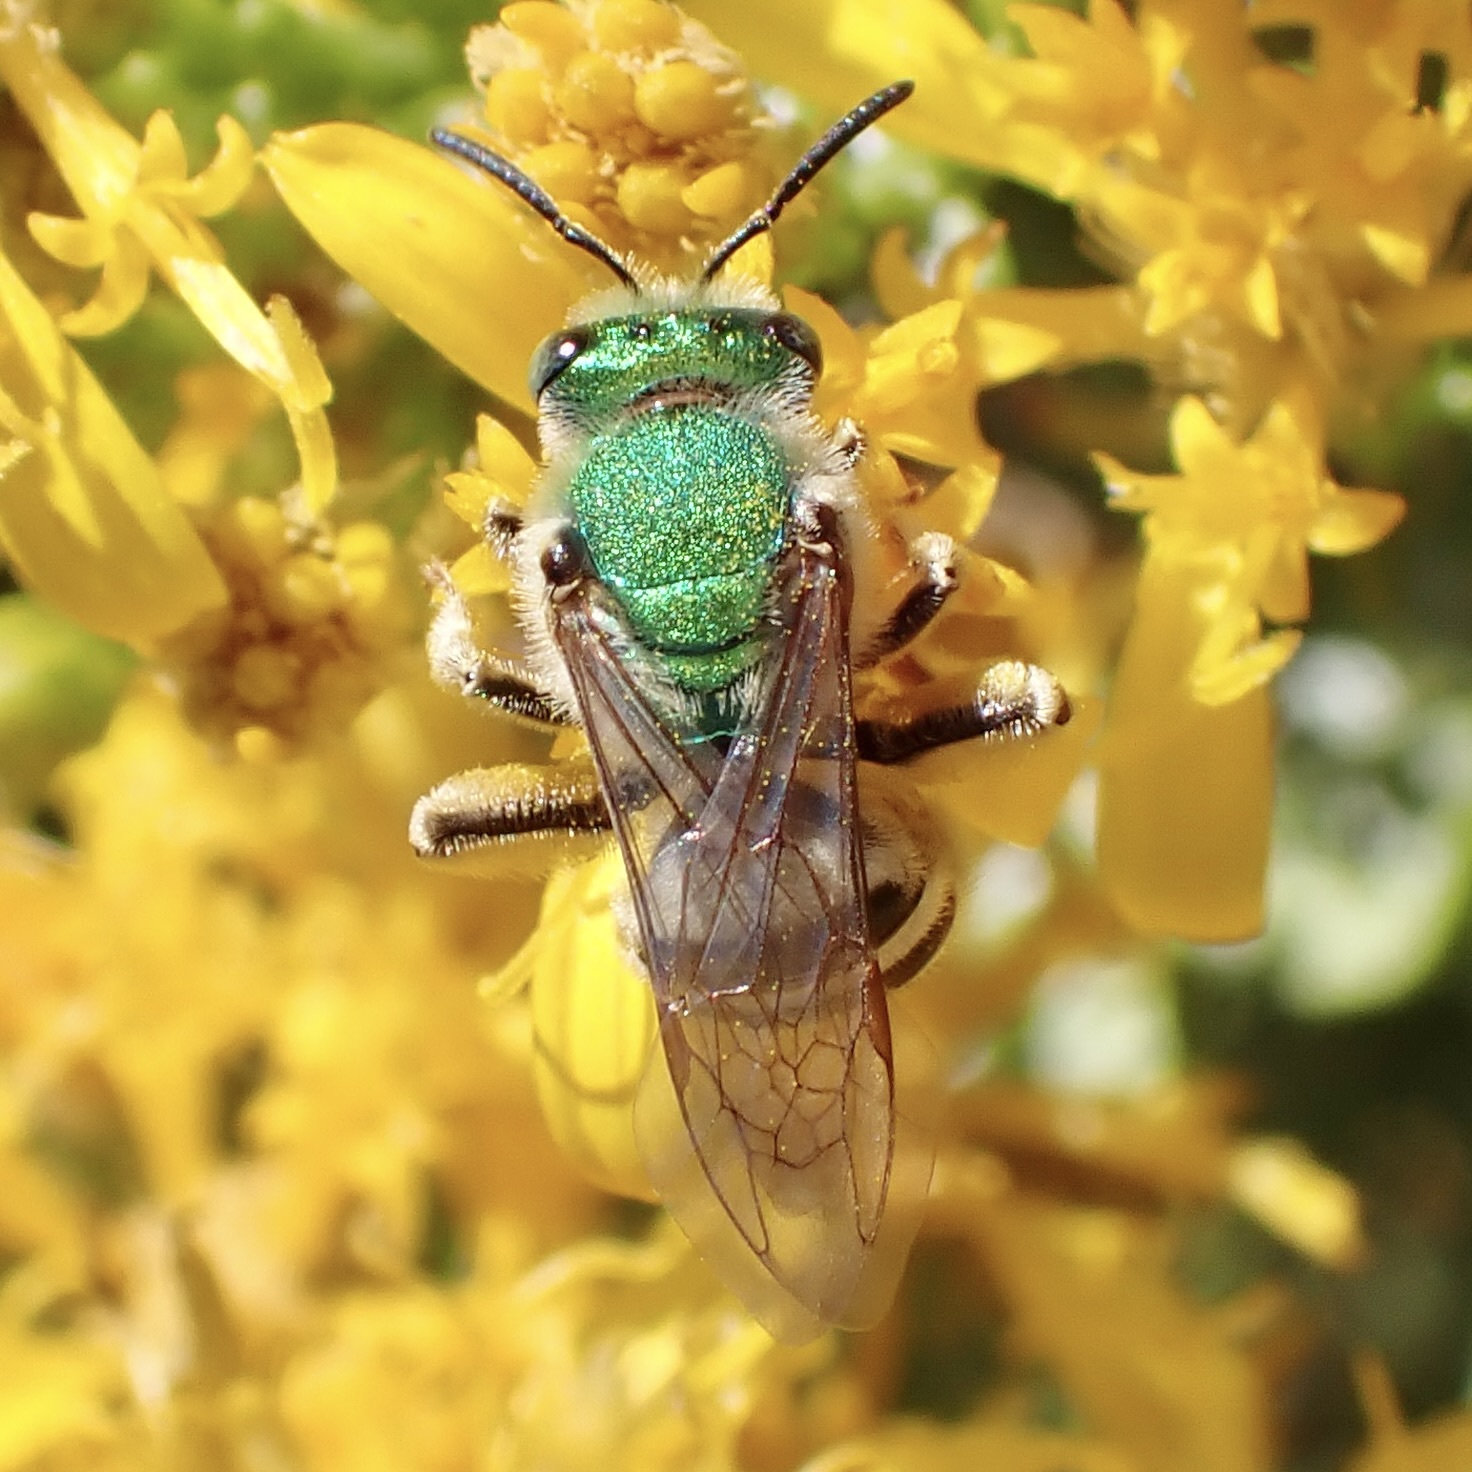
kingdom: Animalia
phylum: Arthropoda
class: Insecta
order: Hymenoptera
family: Halictidae
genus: Agapostemon
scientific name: Agapostemon melliventris
